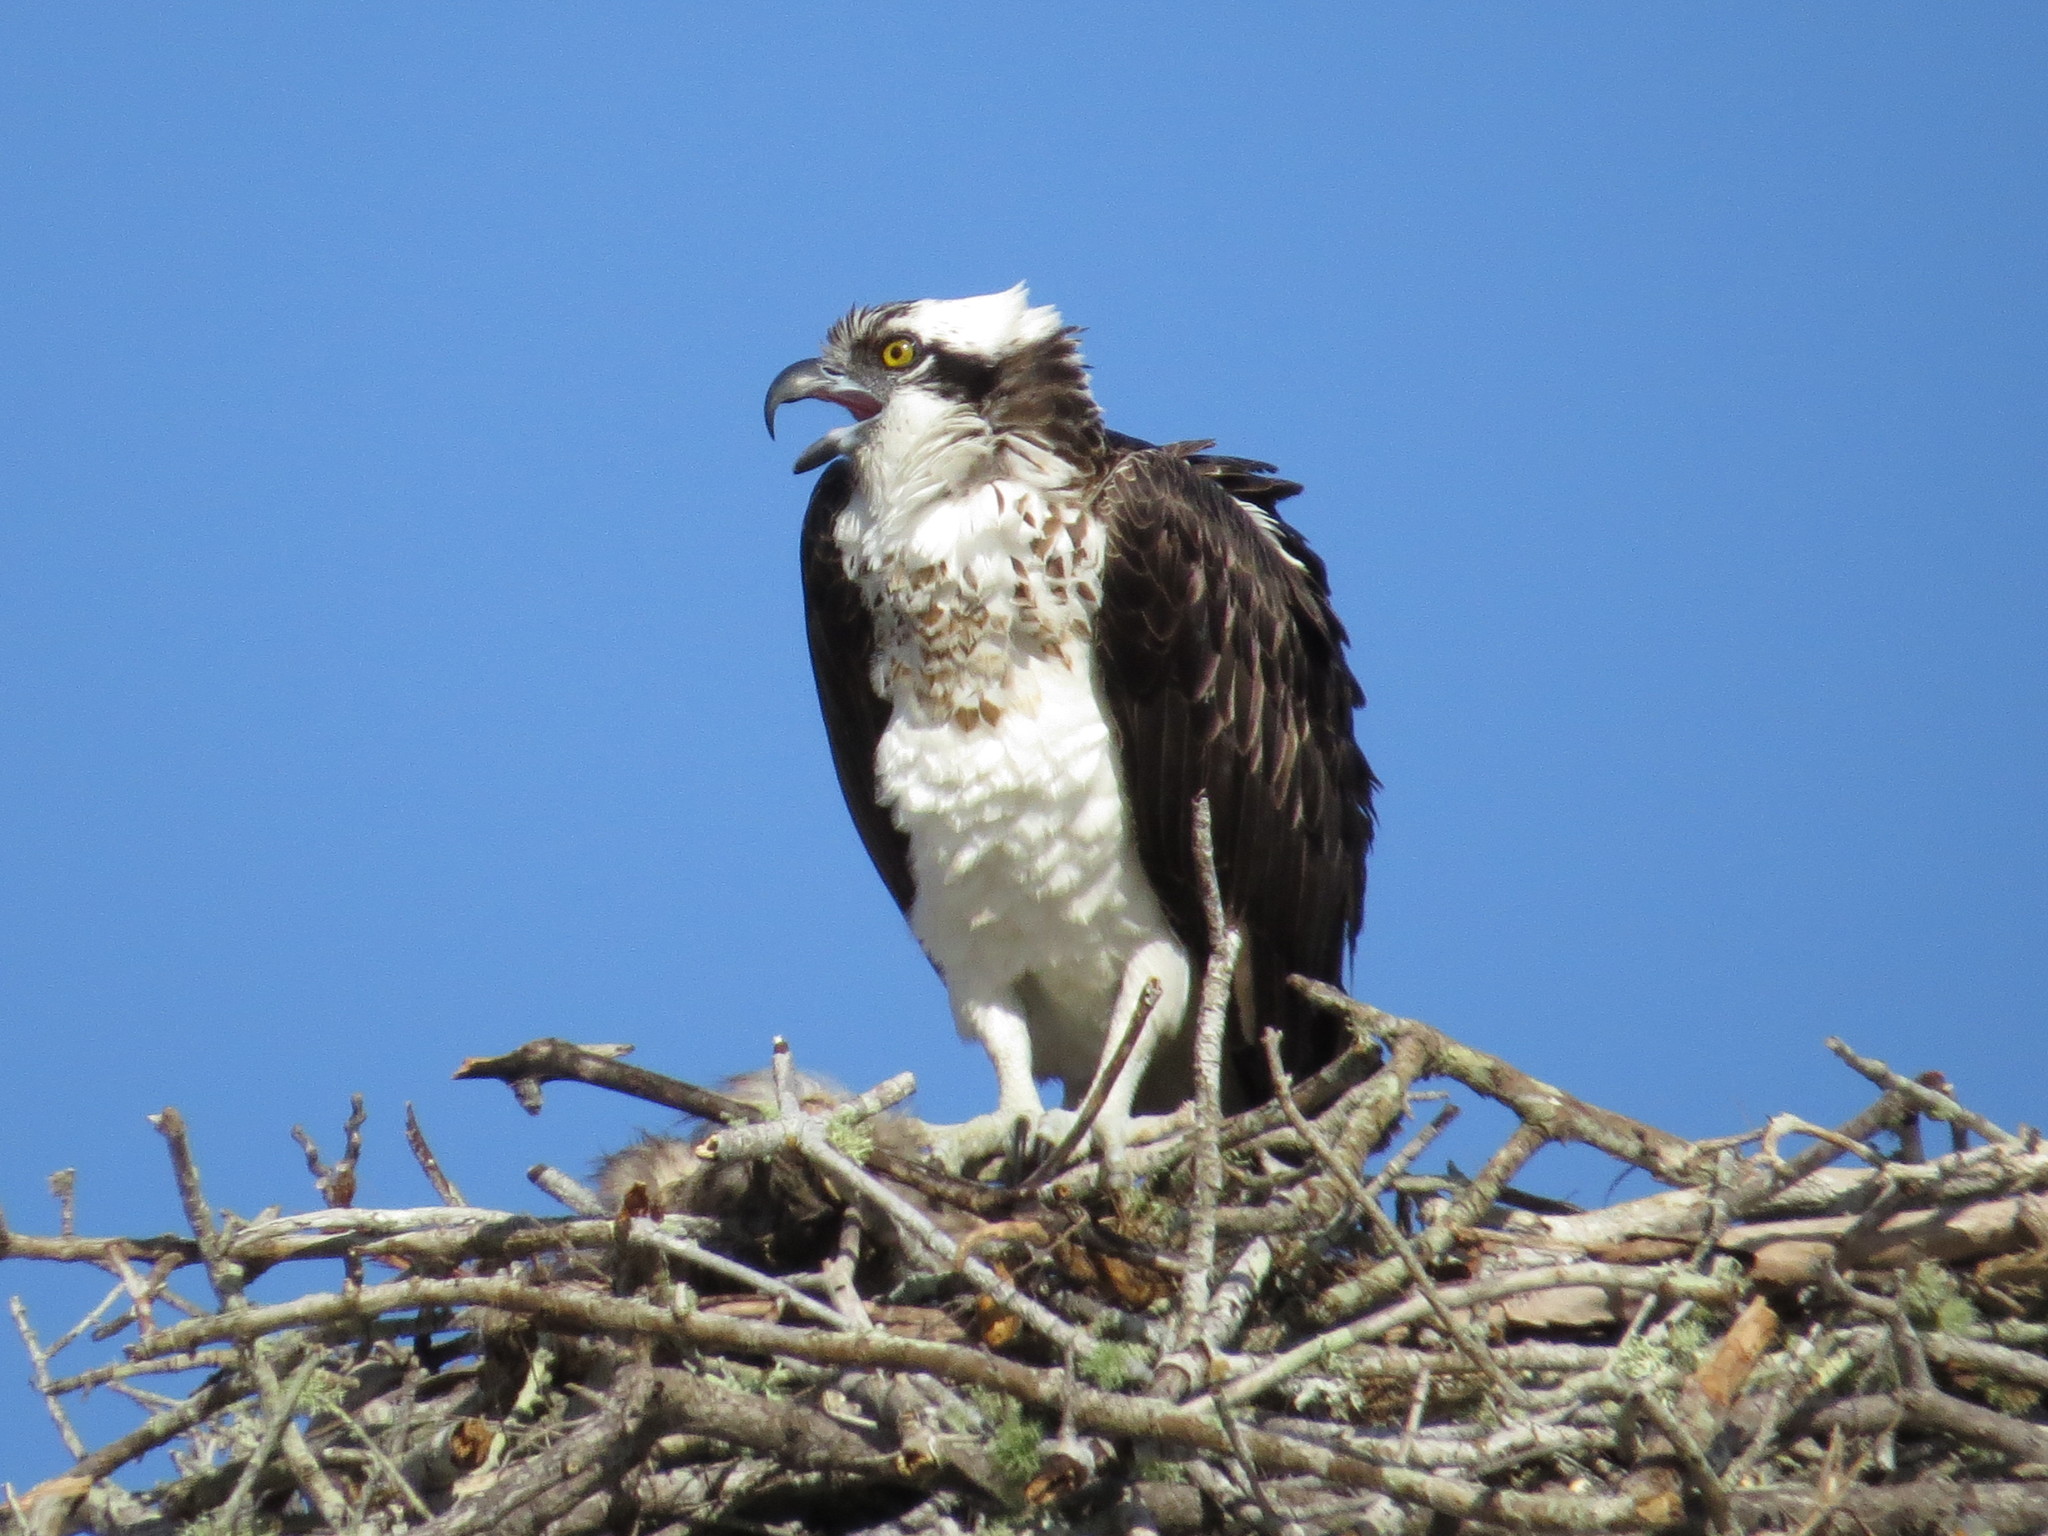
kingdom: Animalia
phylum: Chordata
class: Aves
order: Accipitriformes
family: Pandionidae
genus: Pandion
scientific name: Pandion haliaetus
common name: Osprey
